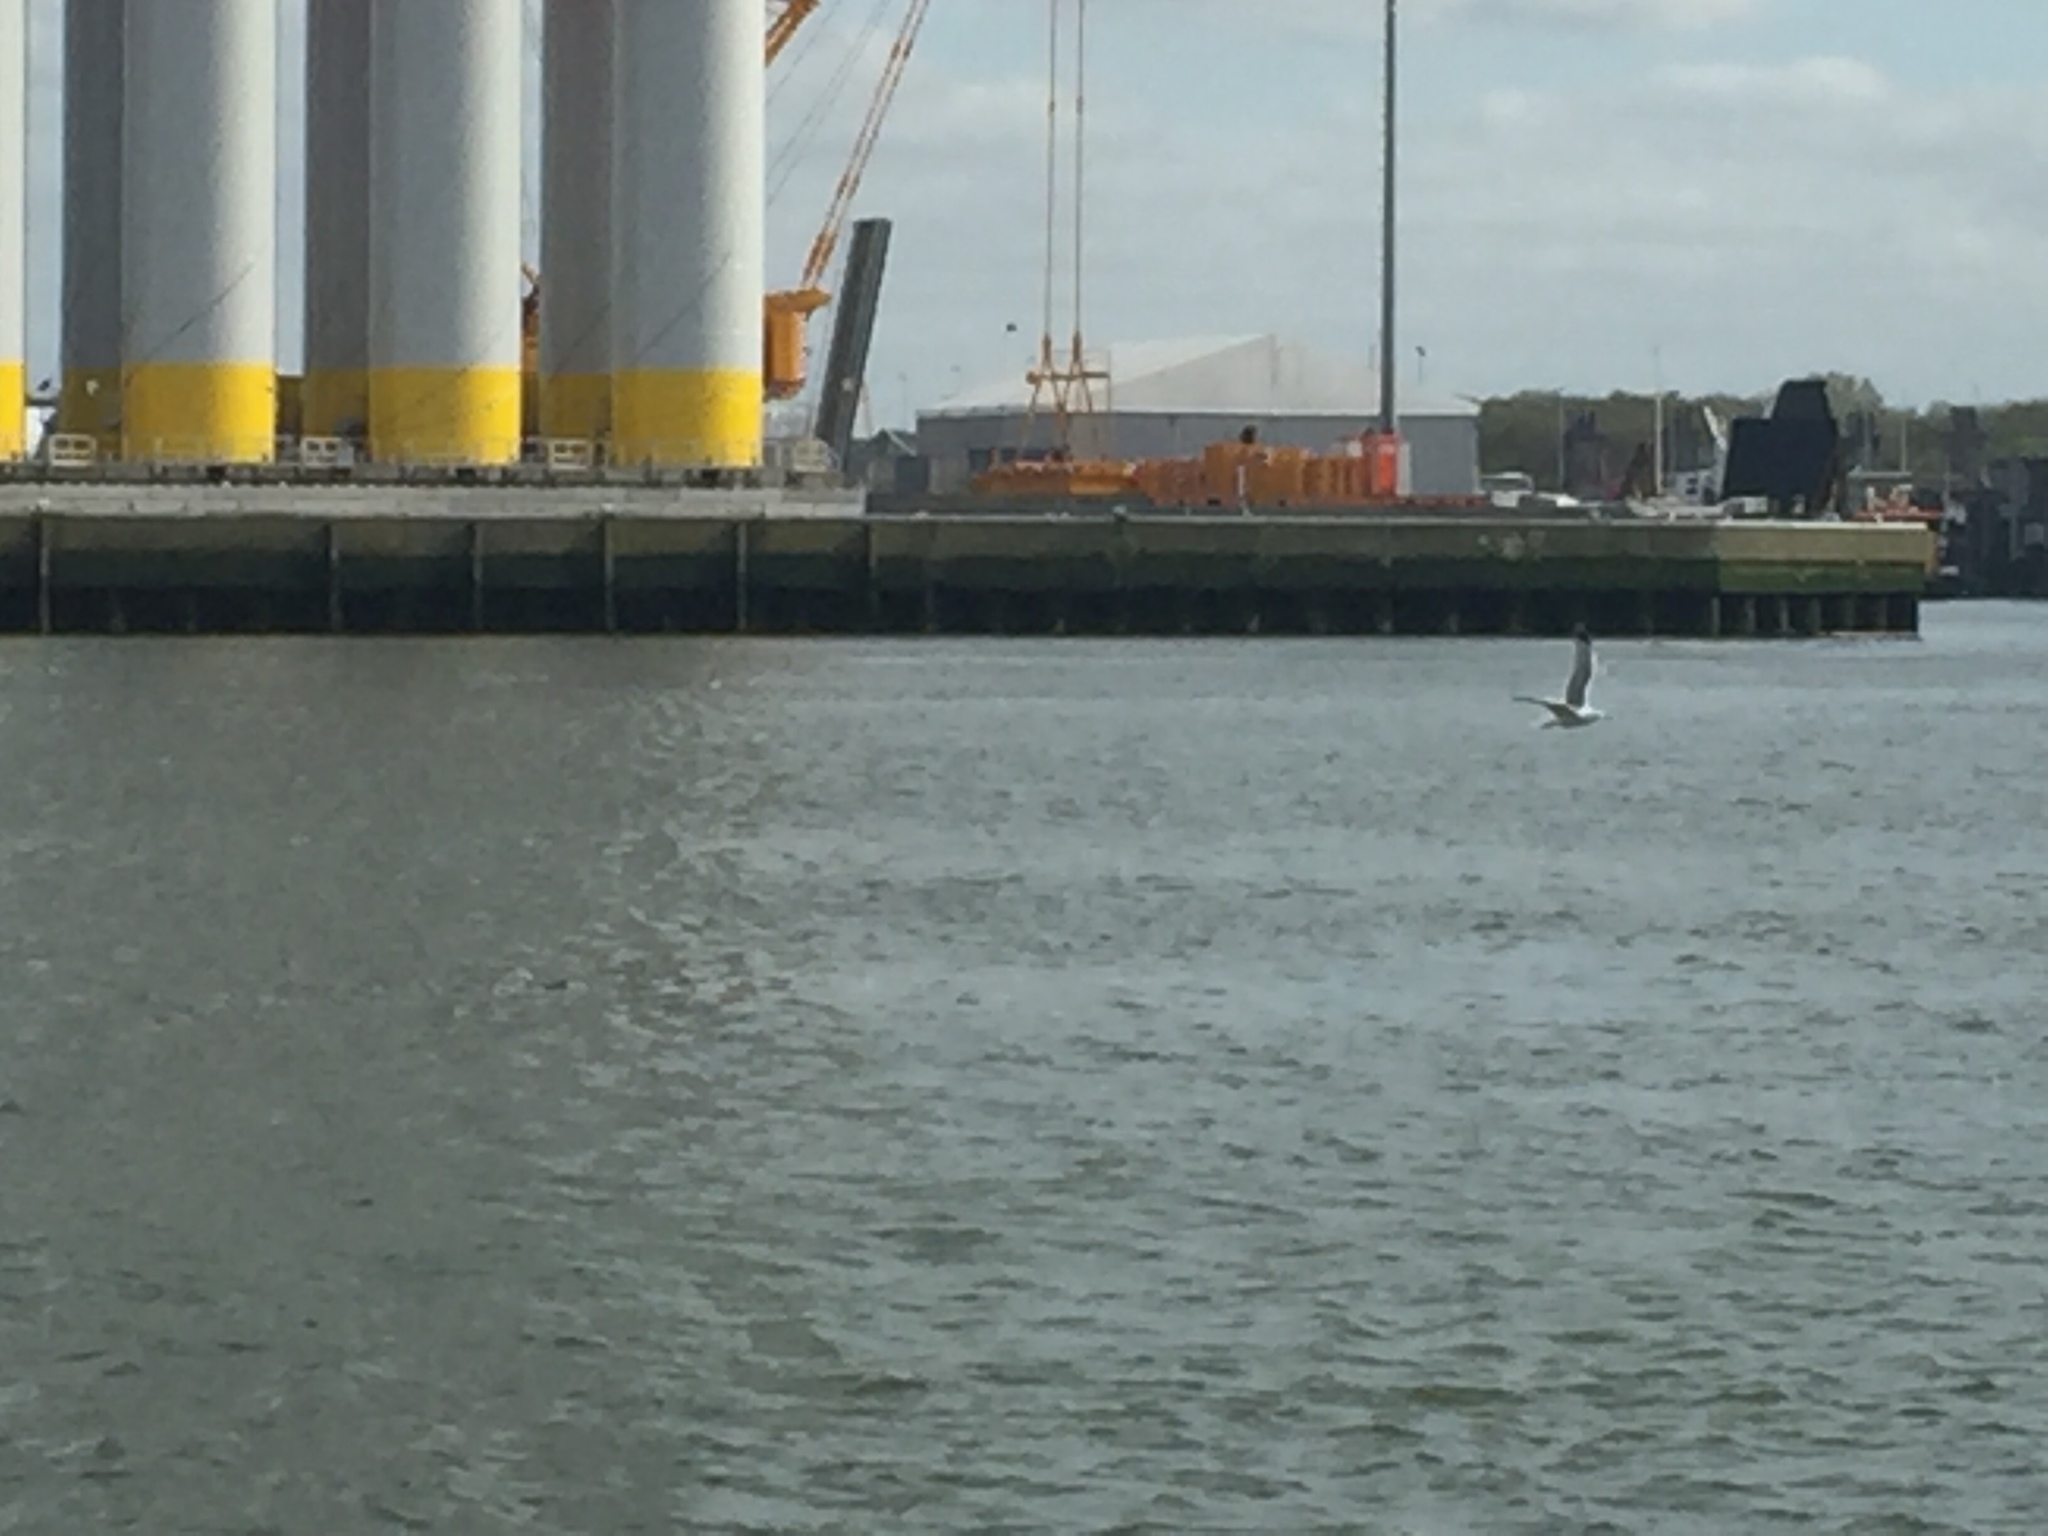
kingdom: Animalia
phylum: Chordata
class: Aves
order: Charadriiformes
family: Laridae
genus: Larus
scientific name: Larus fuscus
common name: Lesser black-backed gull
